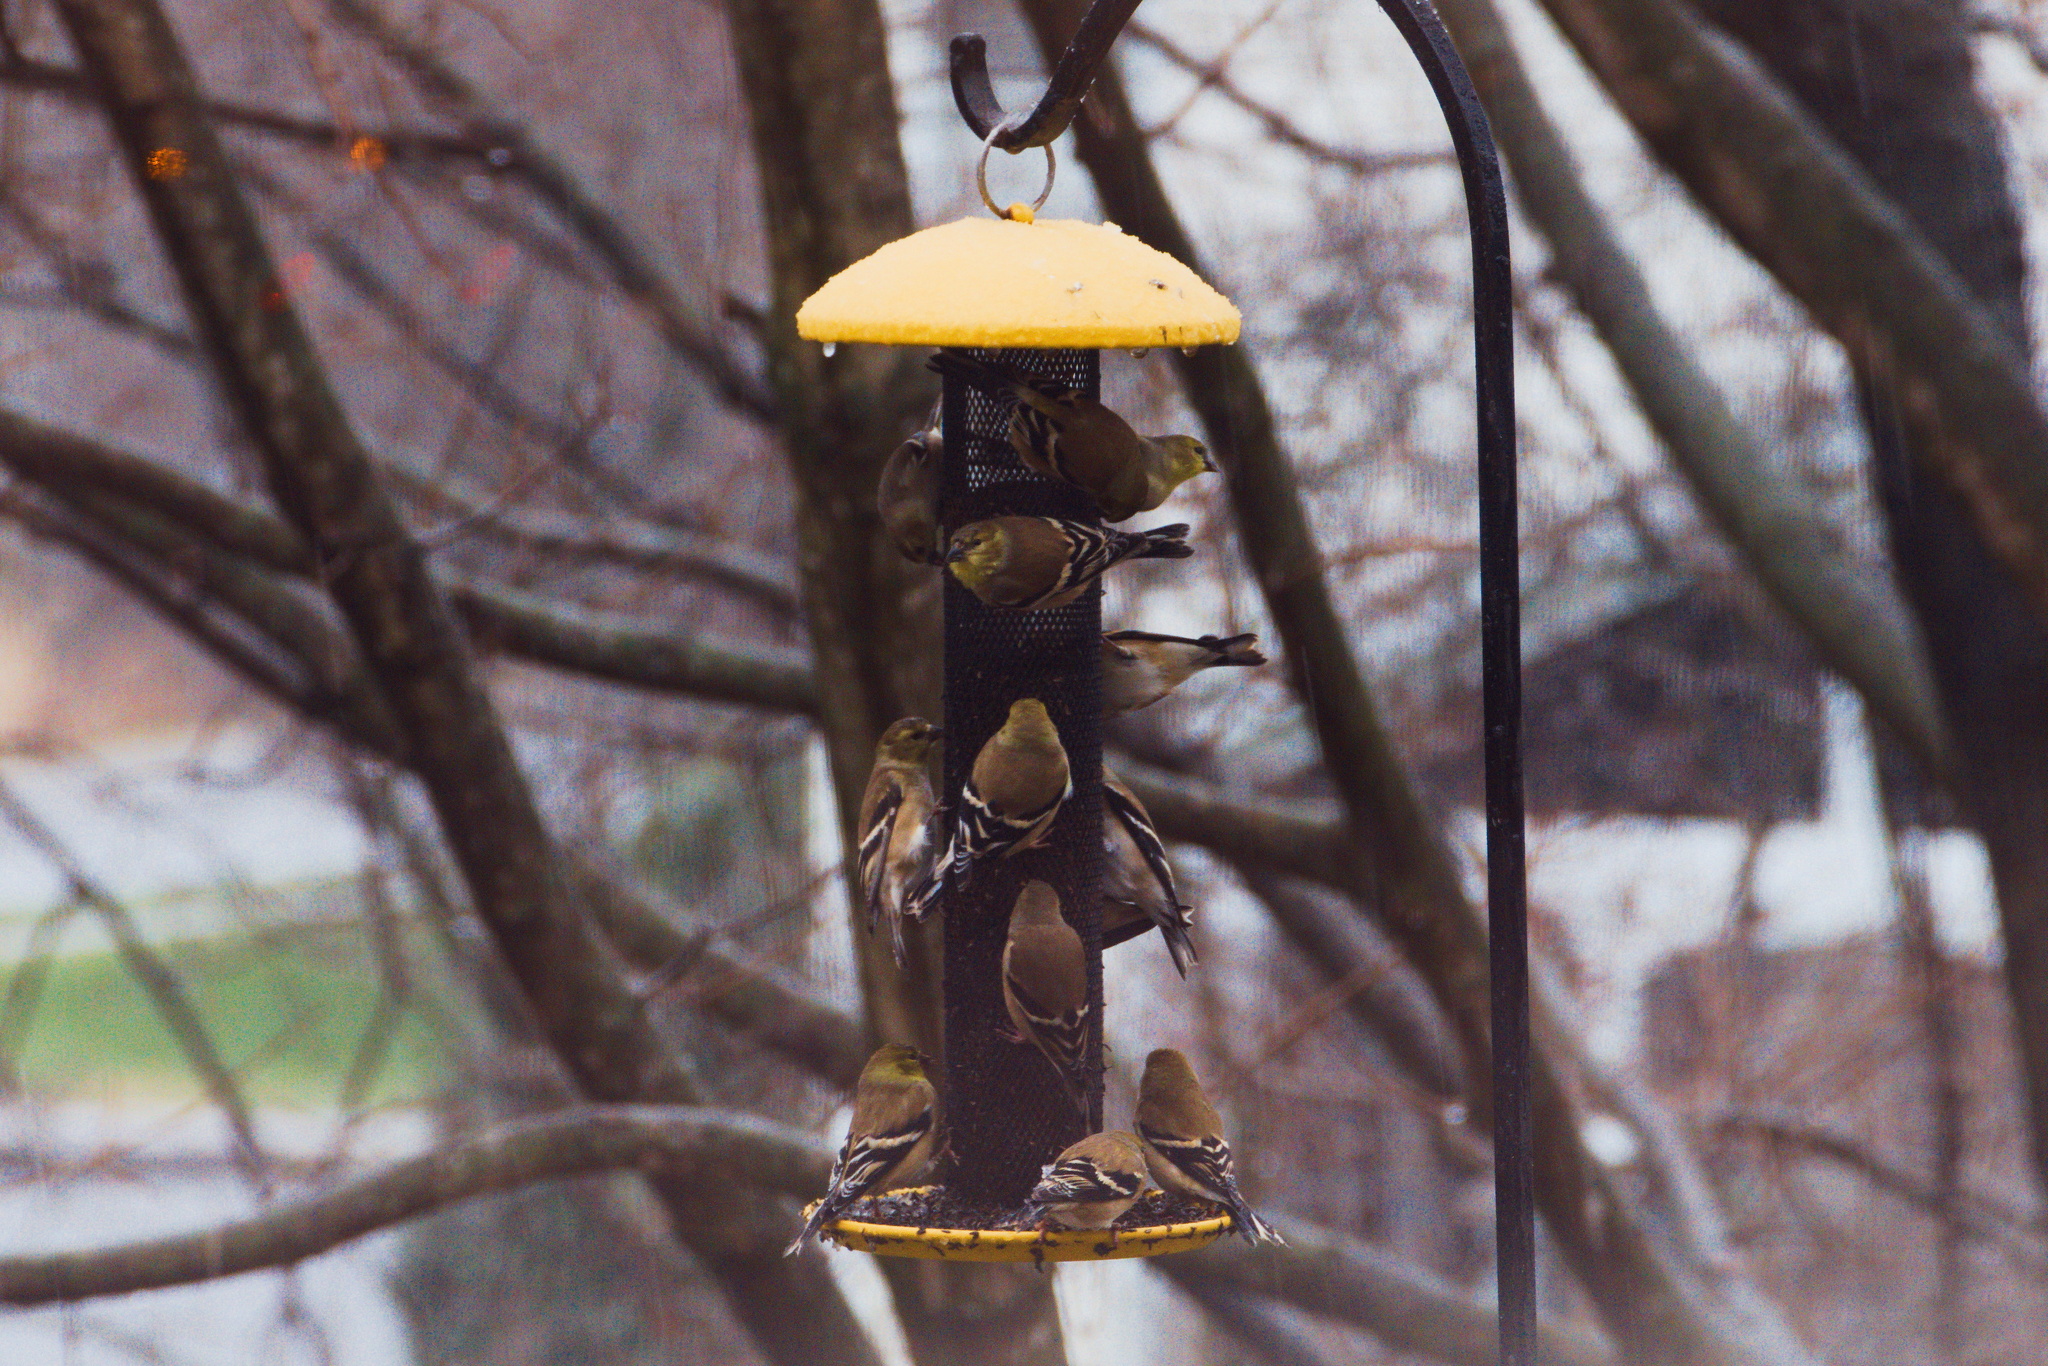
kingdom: Animalia
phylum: Chordata
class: Aves
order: Passeriformes
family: Fringillidae
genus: Spinus
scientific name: Spinus tristis
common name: American goldfinch
